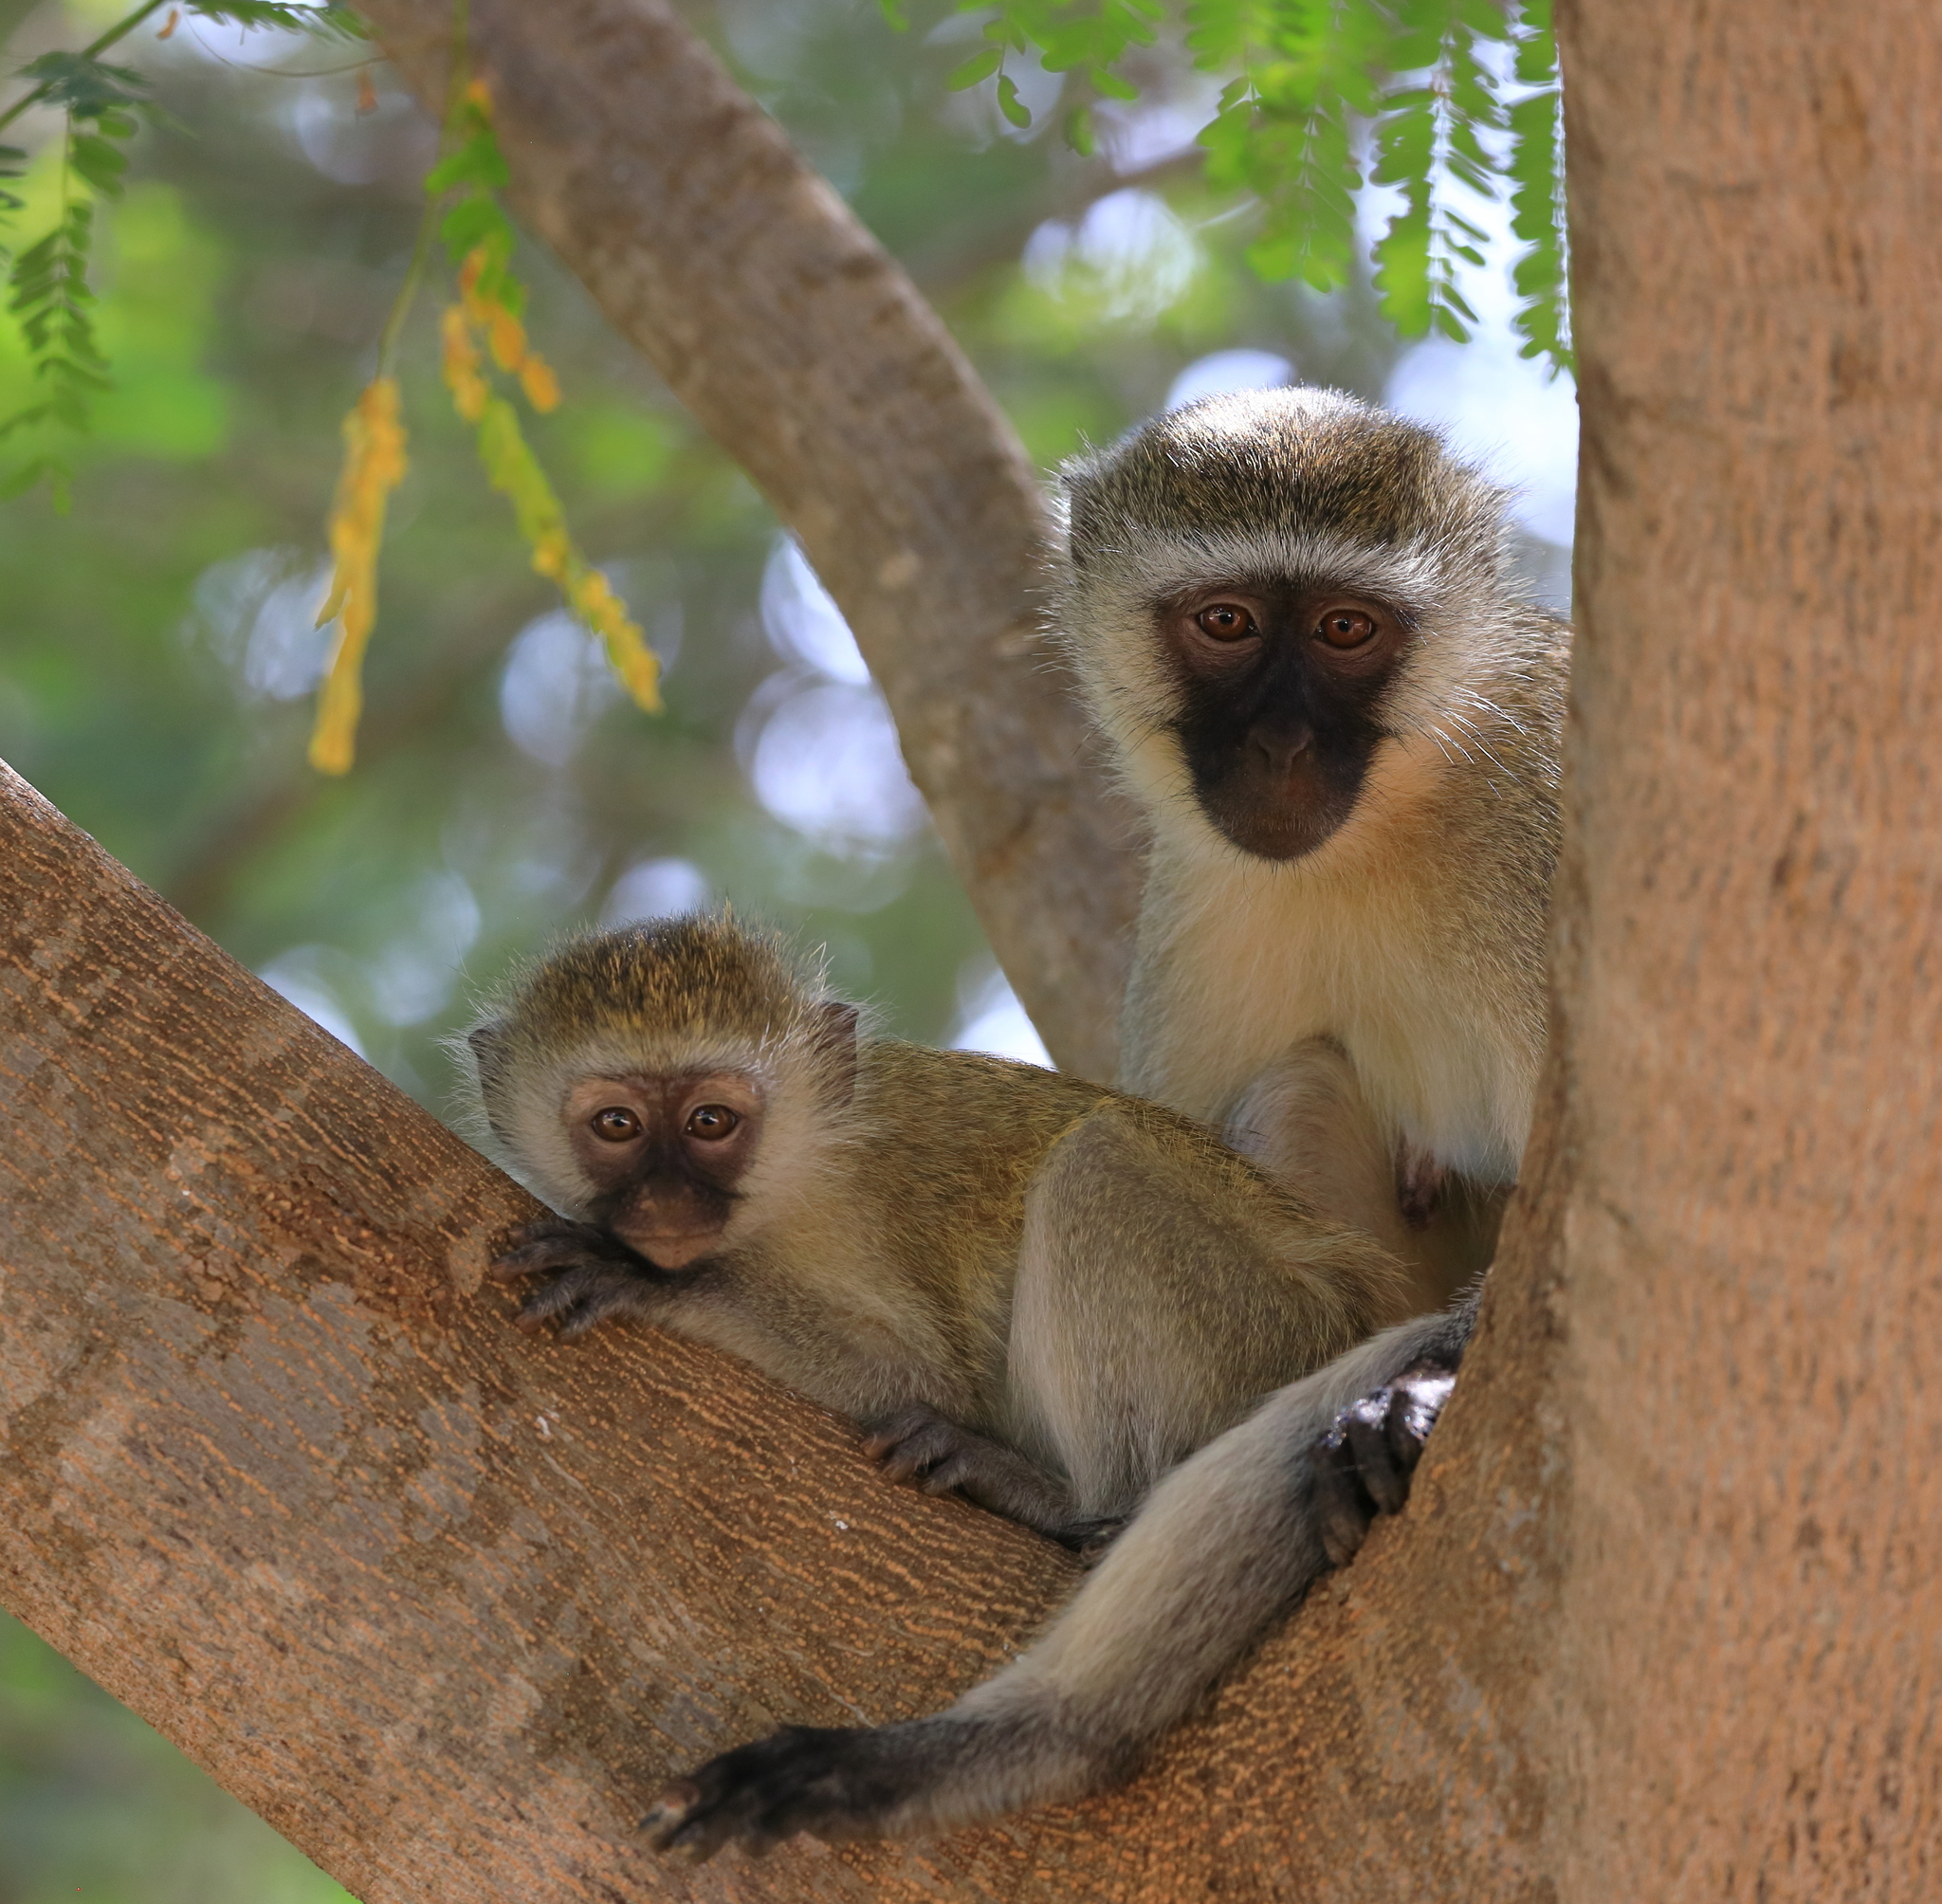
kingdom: Animalia
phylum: Chordata
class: Mammalia
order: Primates
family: Cercopithecidae
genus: Chlorocebus
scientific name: Chlorocebus pygerythrus
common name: Vervet monkey
